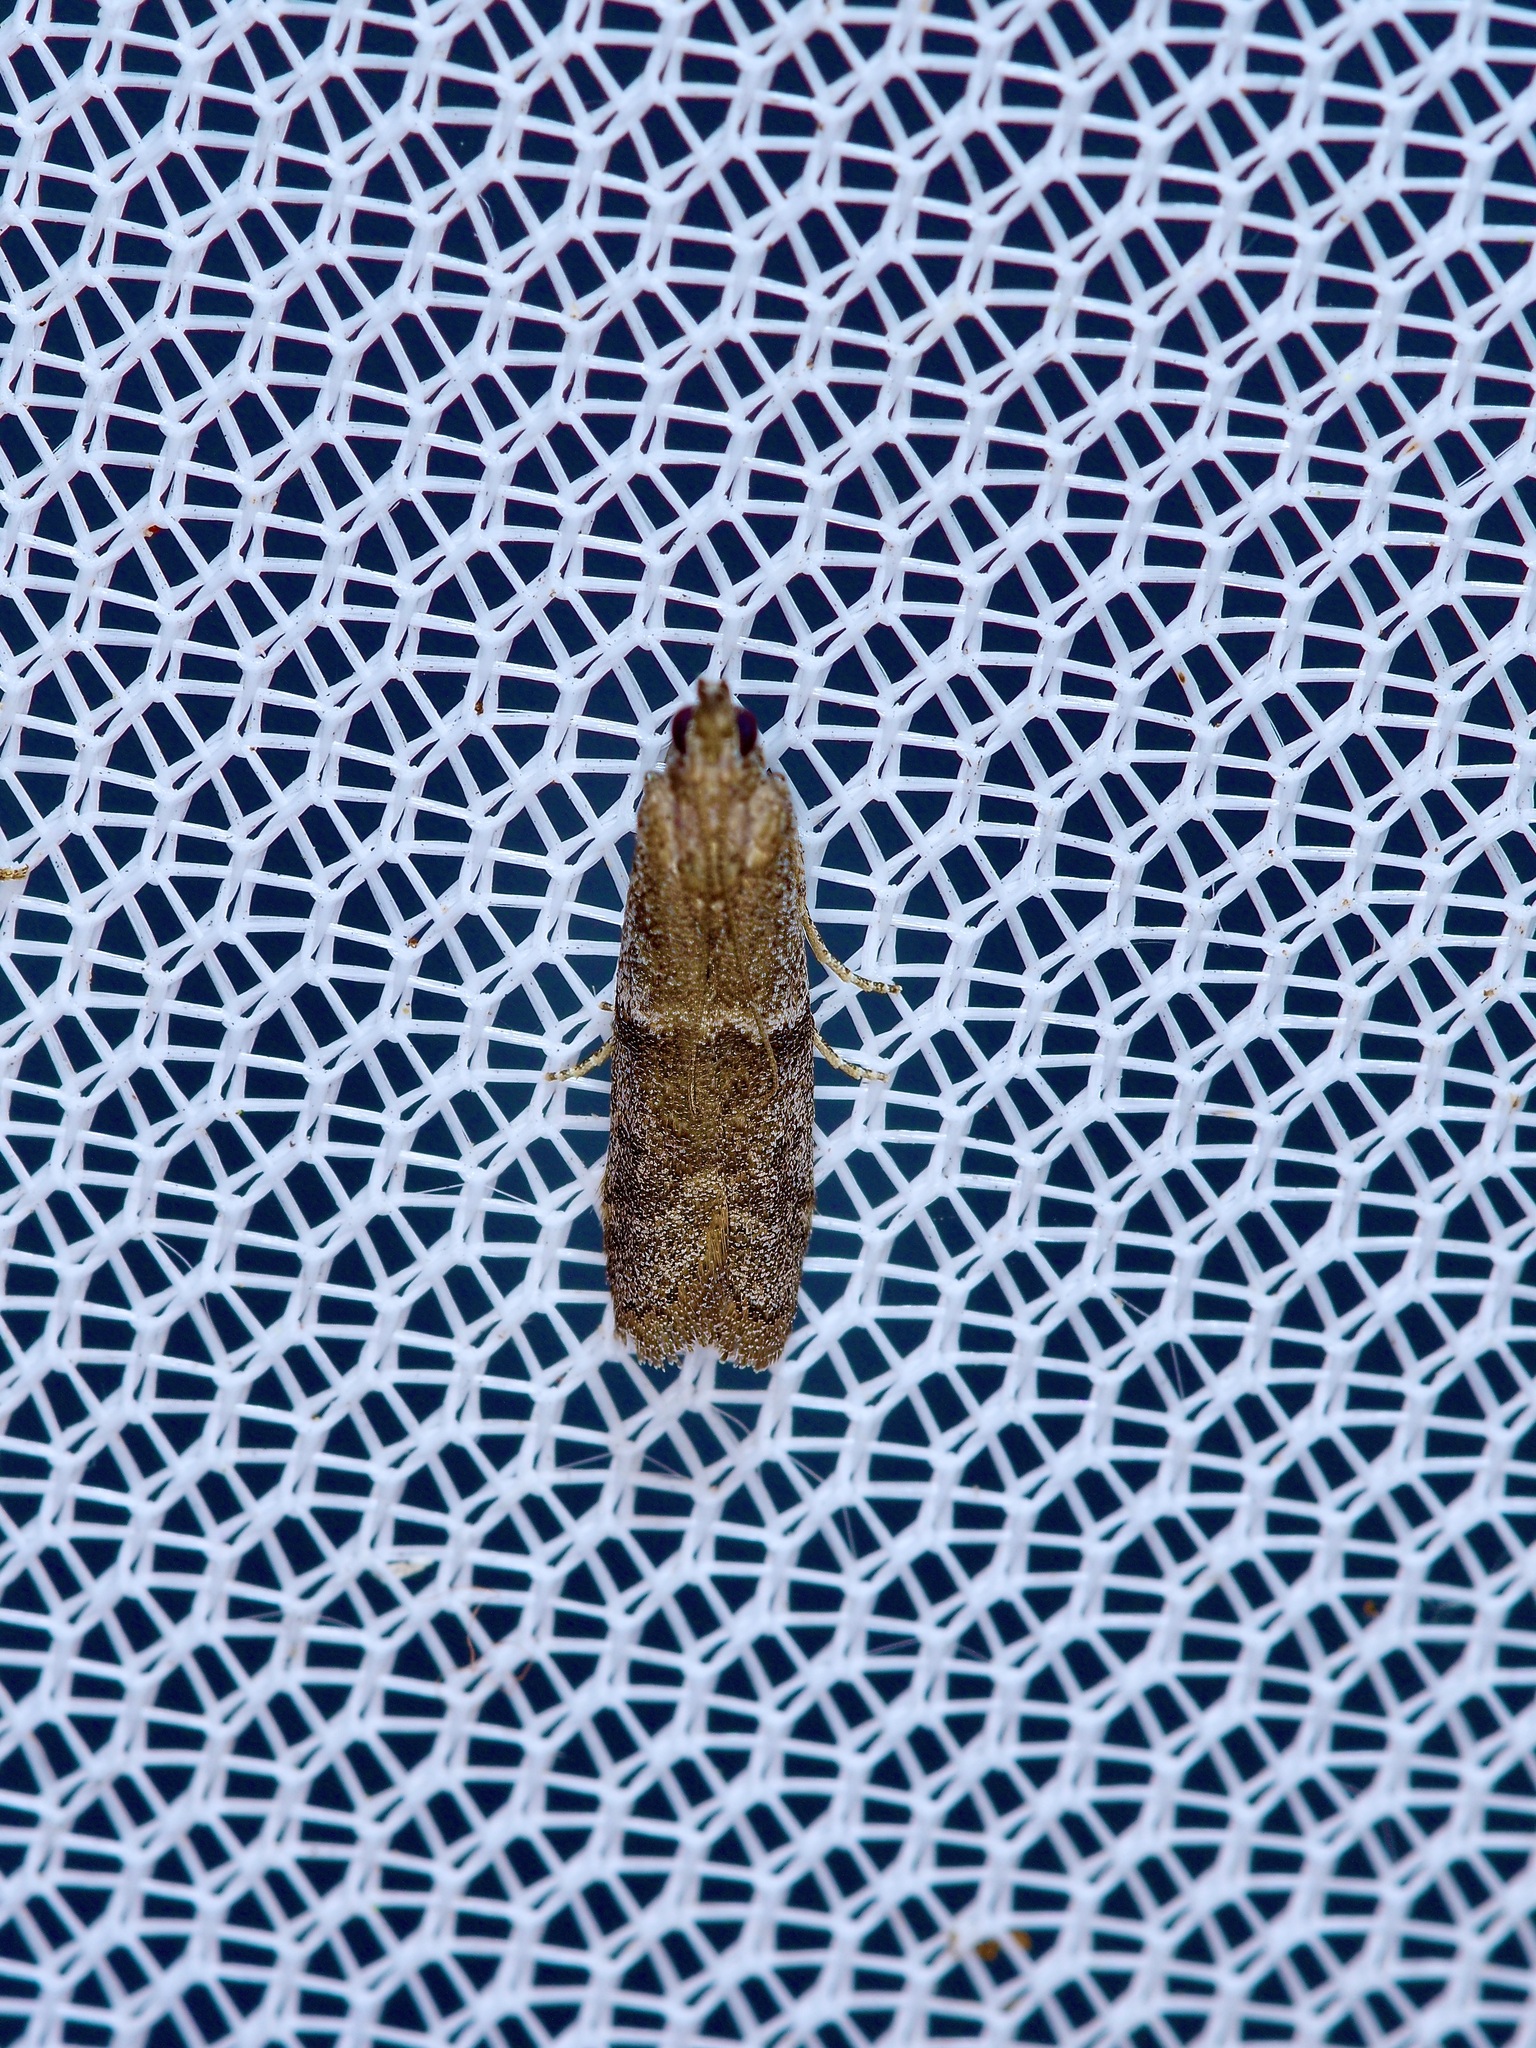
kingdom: Animalia
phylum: Arthropoda
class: Insecta
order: Lepidoptera
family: Pyralidae
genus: Ephestiodes
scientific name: Ephestiodes gilvescentella
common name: Moth
